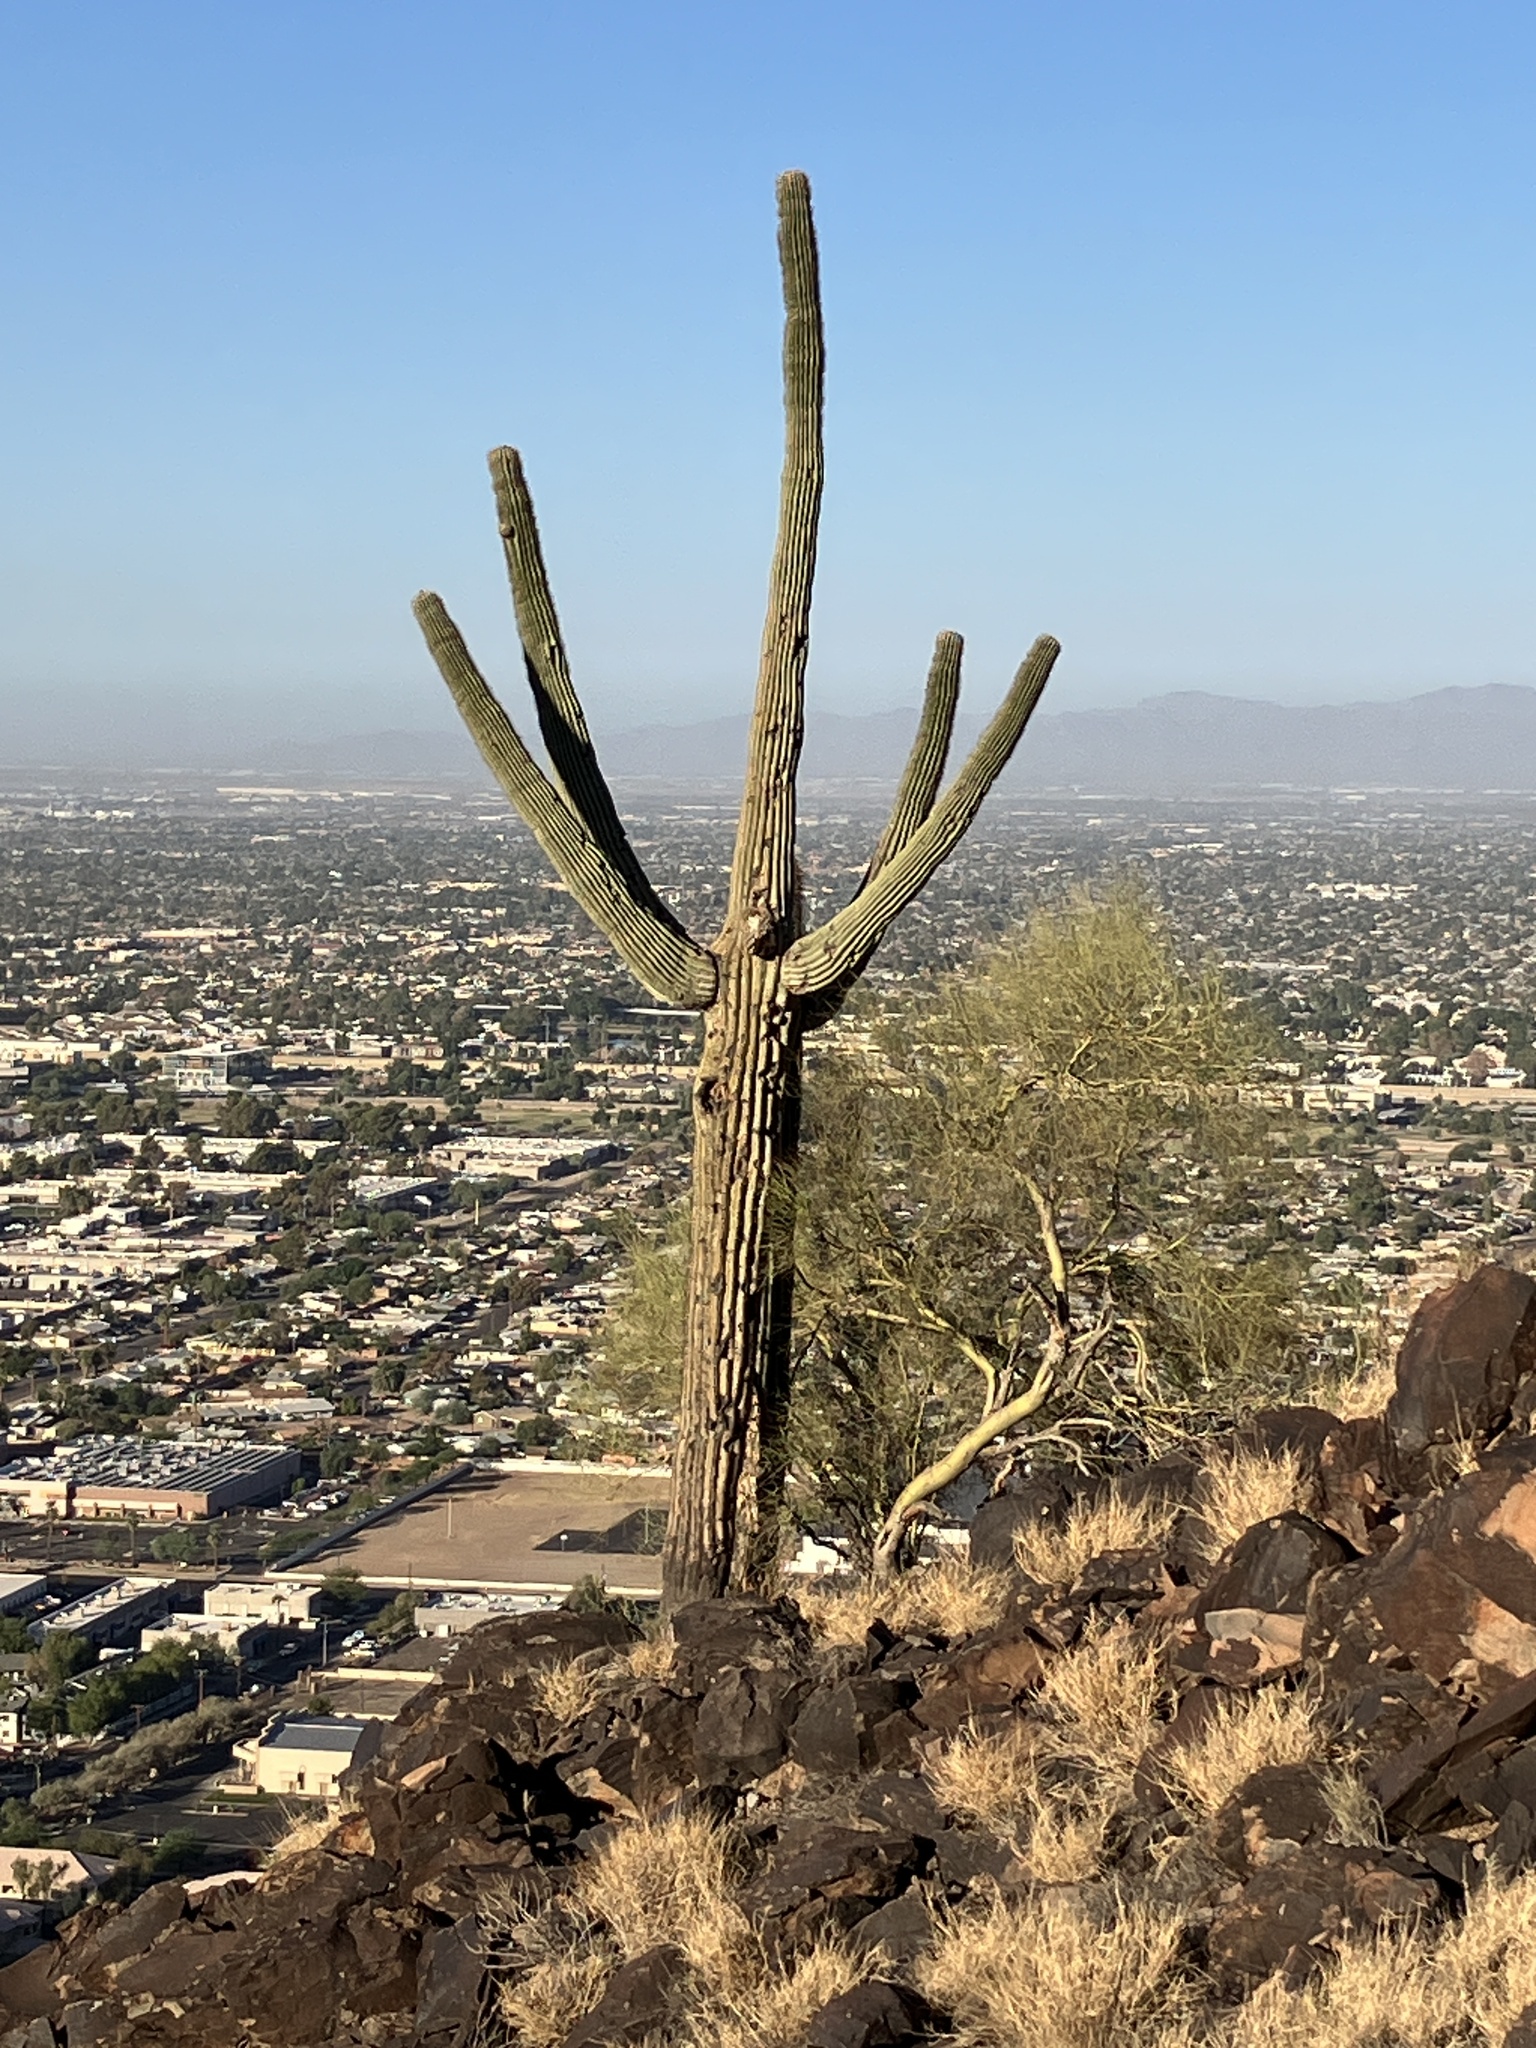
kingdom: Plantae
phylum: Tracheophyta
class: Magnoliopsida
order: Caryophyllales
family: Cactaceae
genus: Carnegiea
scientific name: Carnegiea gigantea
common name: Saguaro
